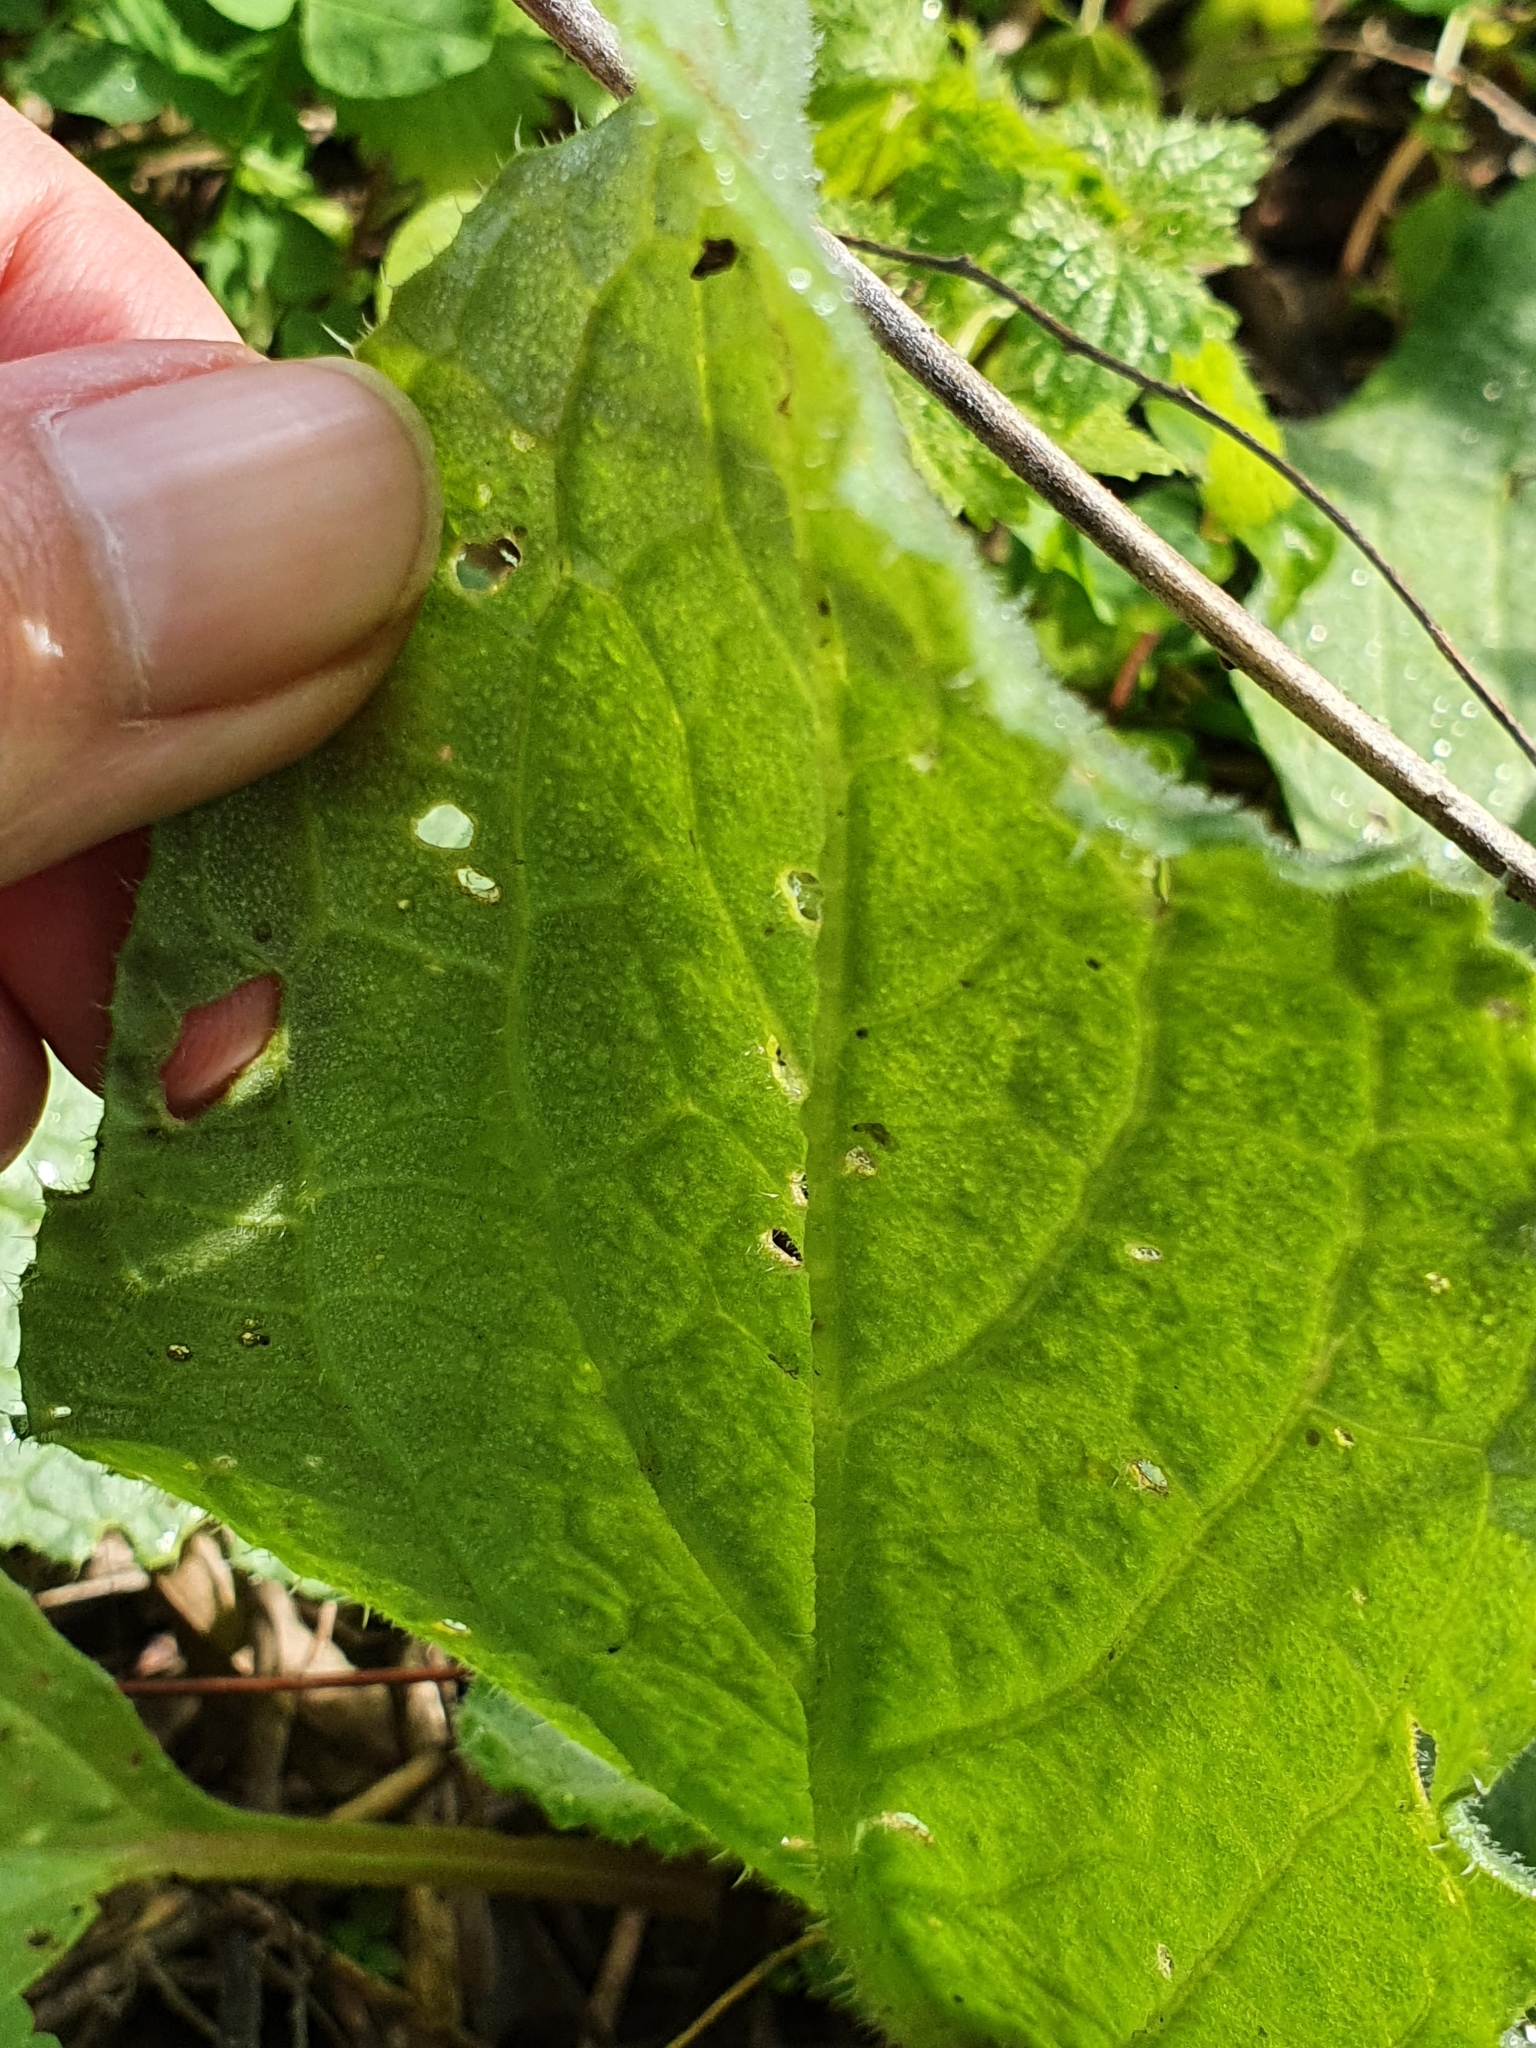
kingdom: Plantae
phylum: Tracheophyta
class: Magnoliopsida
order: Boraginales
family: Boraginaceae
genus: Borago
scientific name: Borago officinalis
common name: Borage
